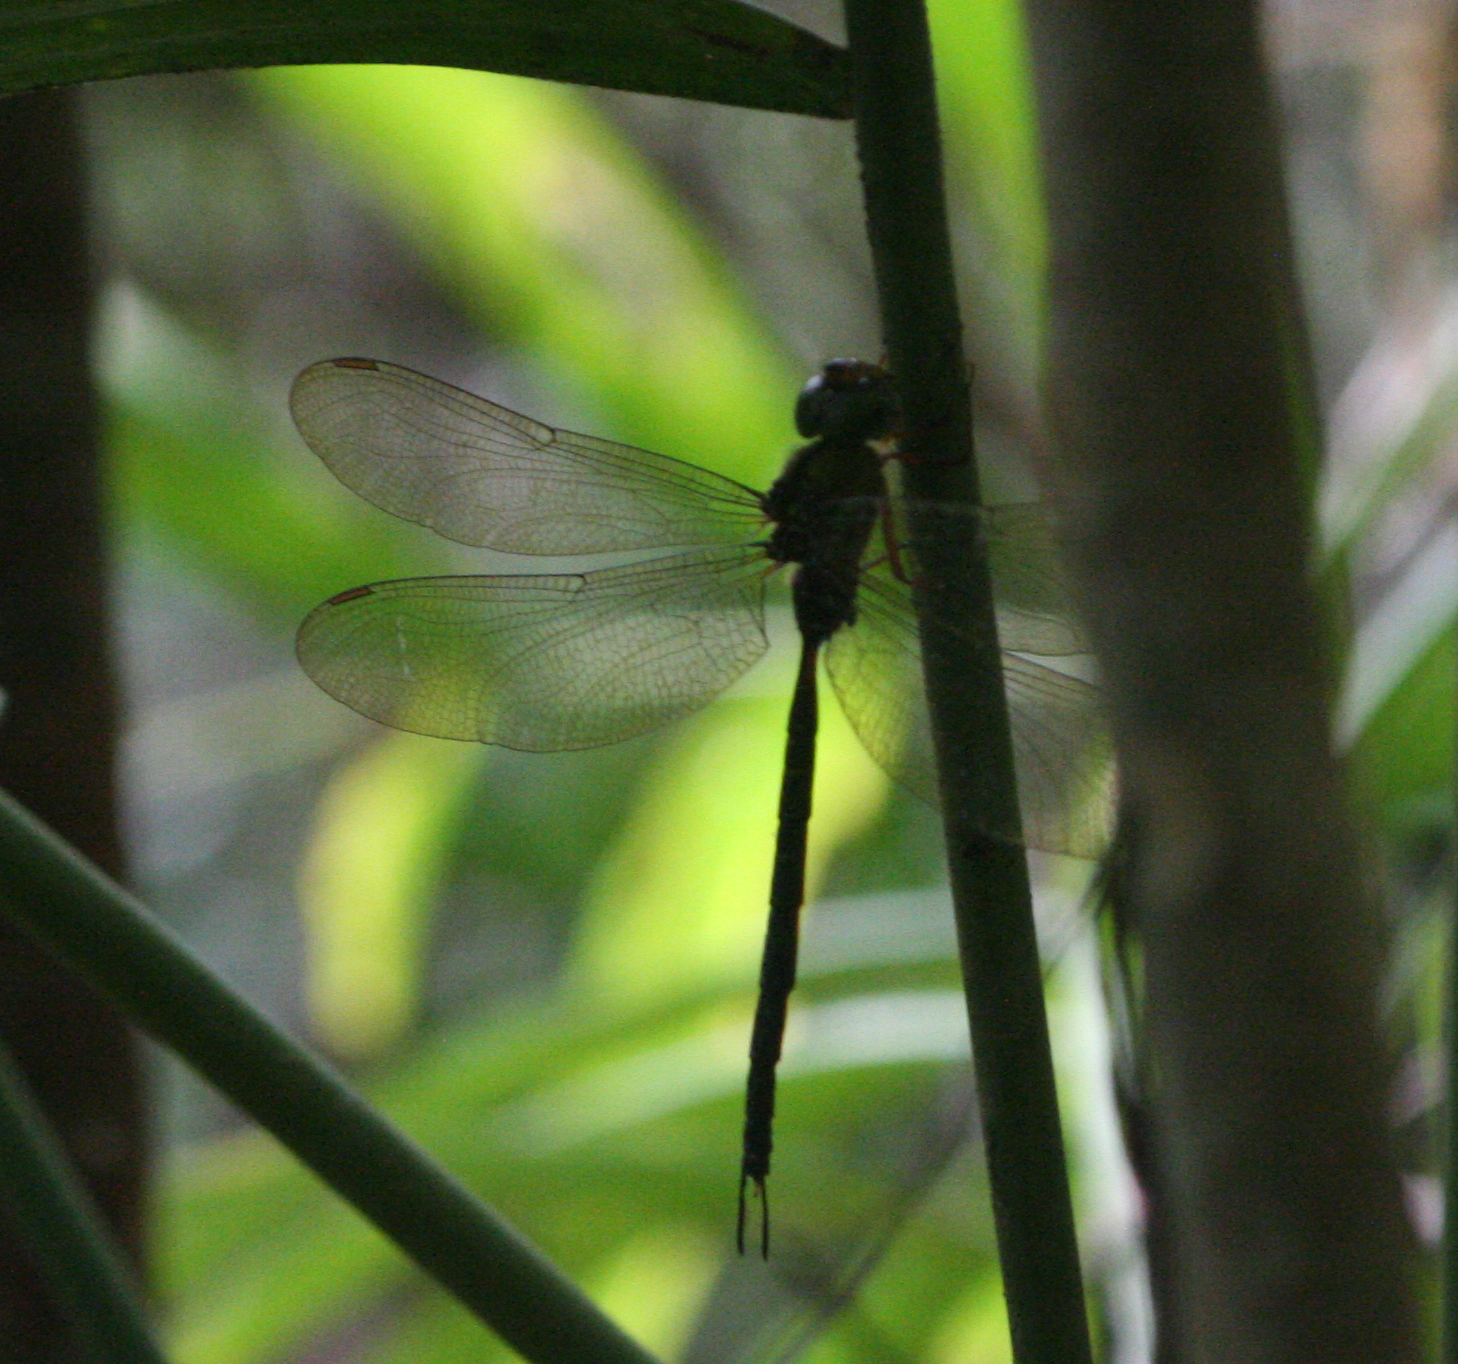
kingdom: Animalia
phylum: Arthropoda
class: Insecta
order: Odonata
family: Aeshnidae
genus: Gynacantha
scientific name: Gynacantha subinterrupta
